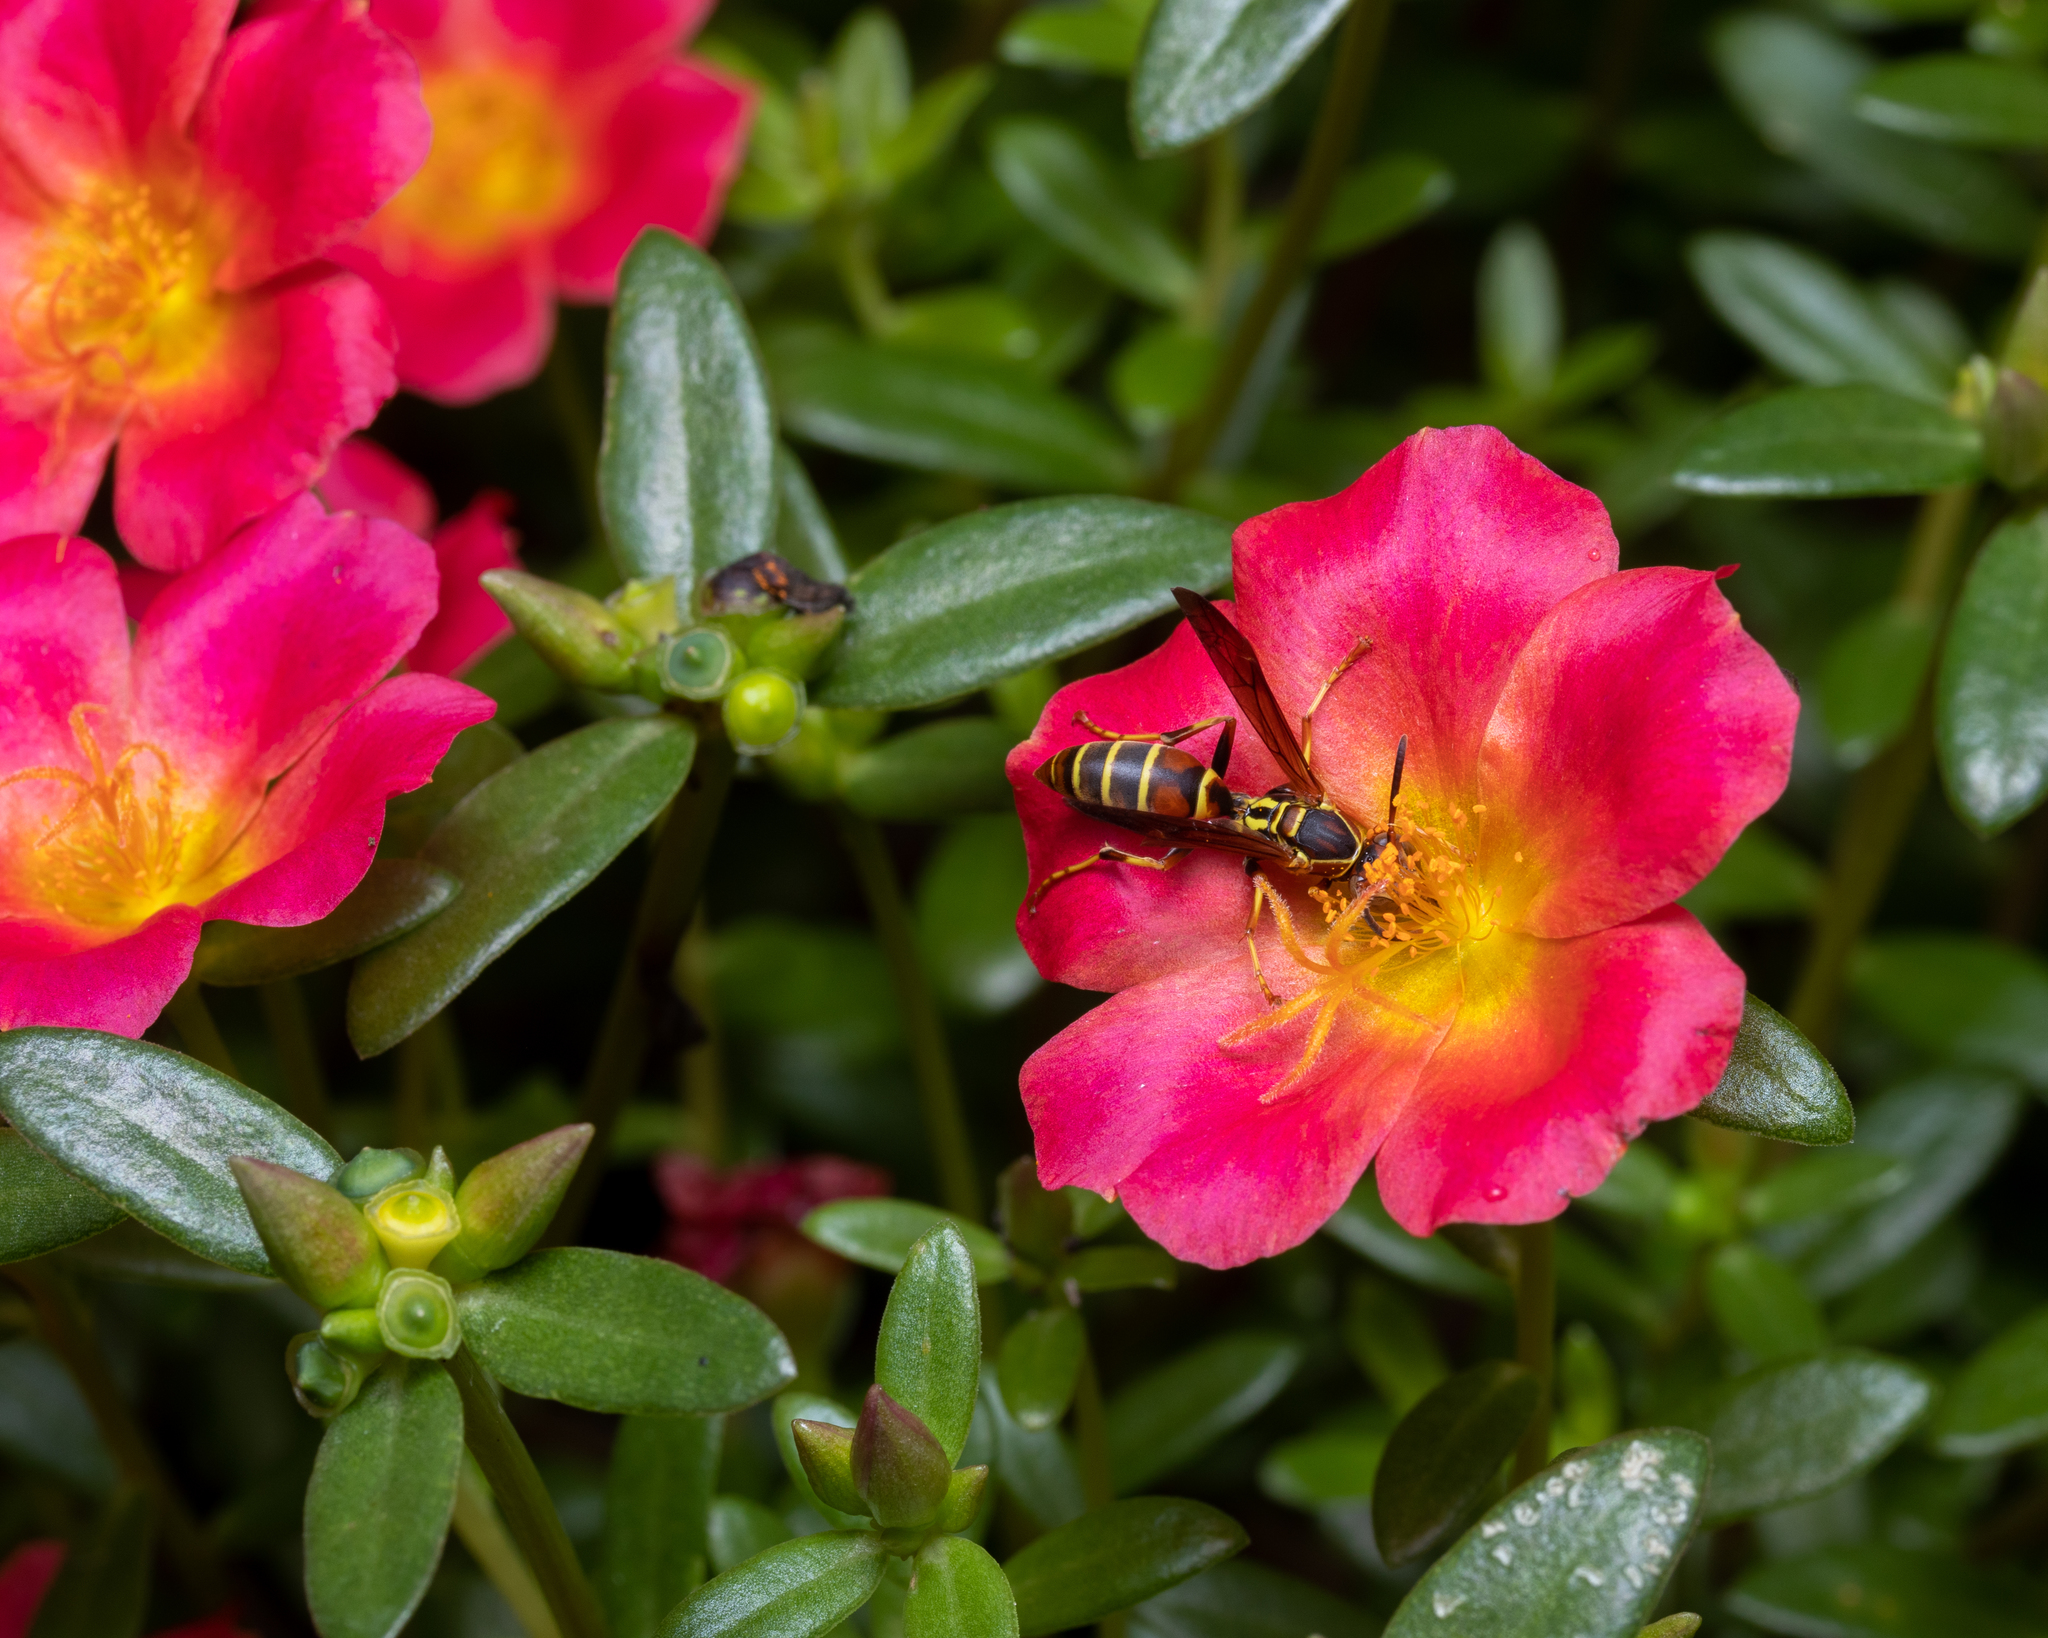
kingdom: Animalia
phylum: Arthropoda
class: Insecta
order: Hymenoptera
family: Eumenidae
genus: Polistes
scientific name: Polistes fuscatus
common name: Dark paper wasp
